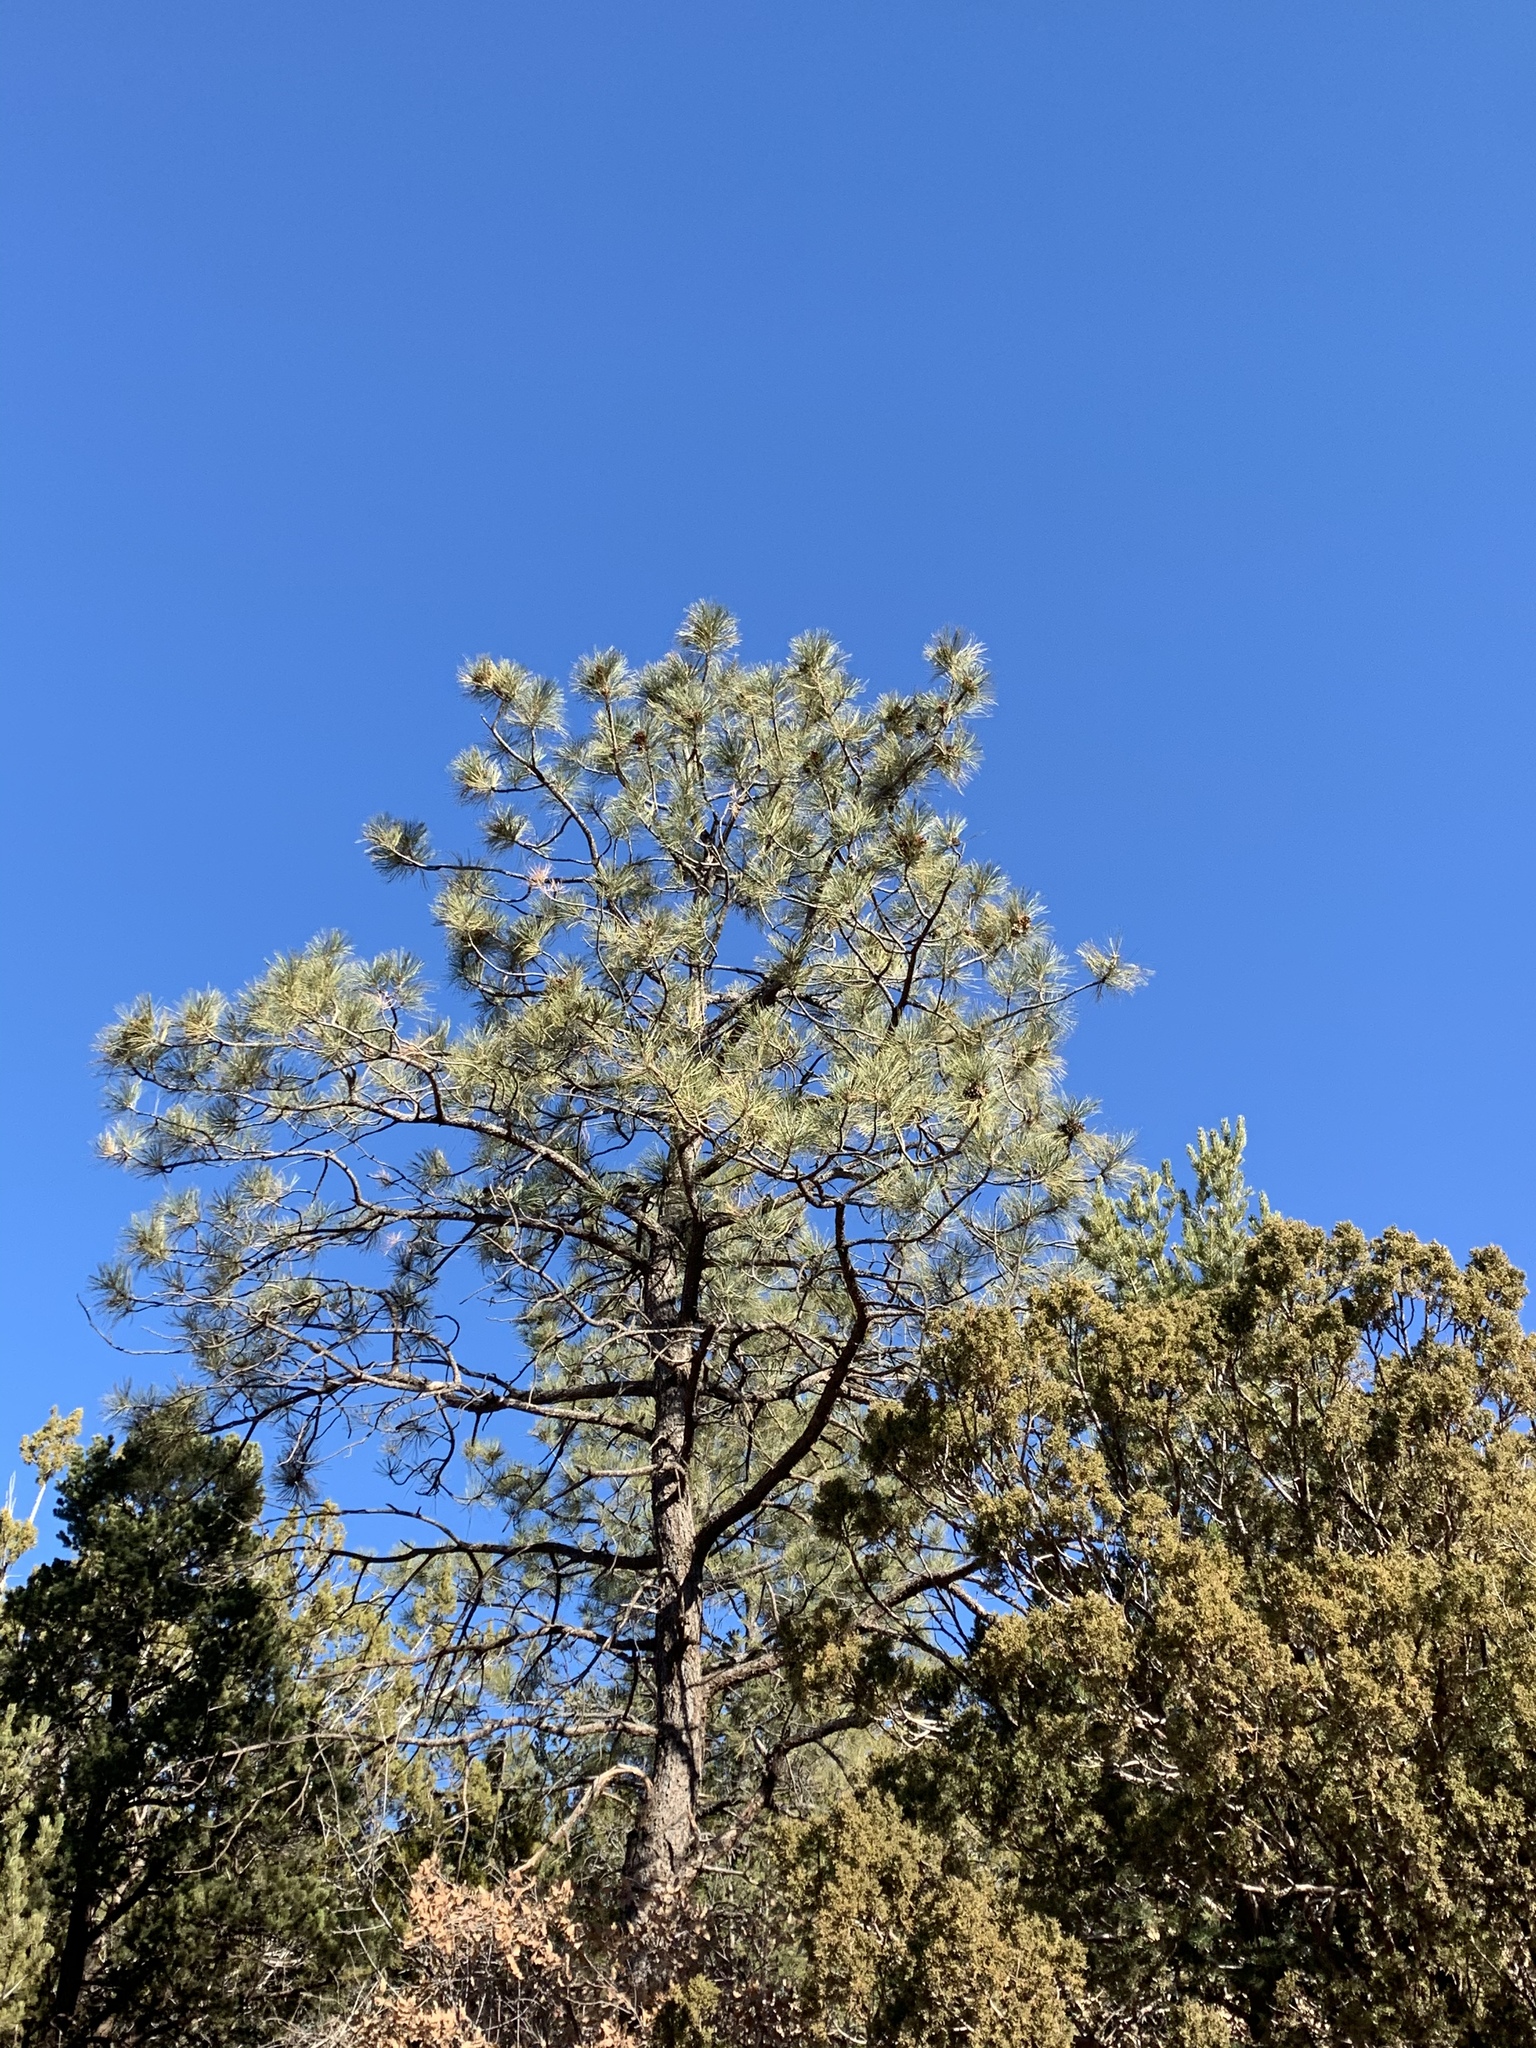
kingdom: Plantae
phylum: Tracheophyta
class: Pinopsida
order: Pinales
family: Pinaceae
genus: Pinus
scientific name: Pinus ponderosa
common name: Western yellow-pine
